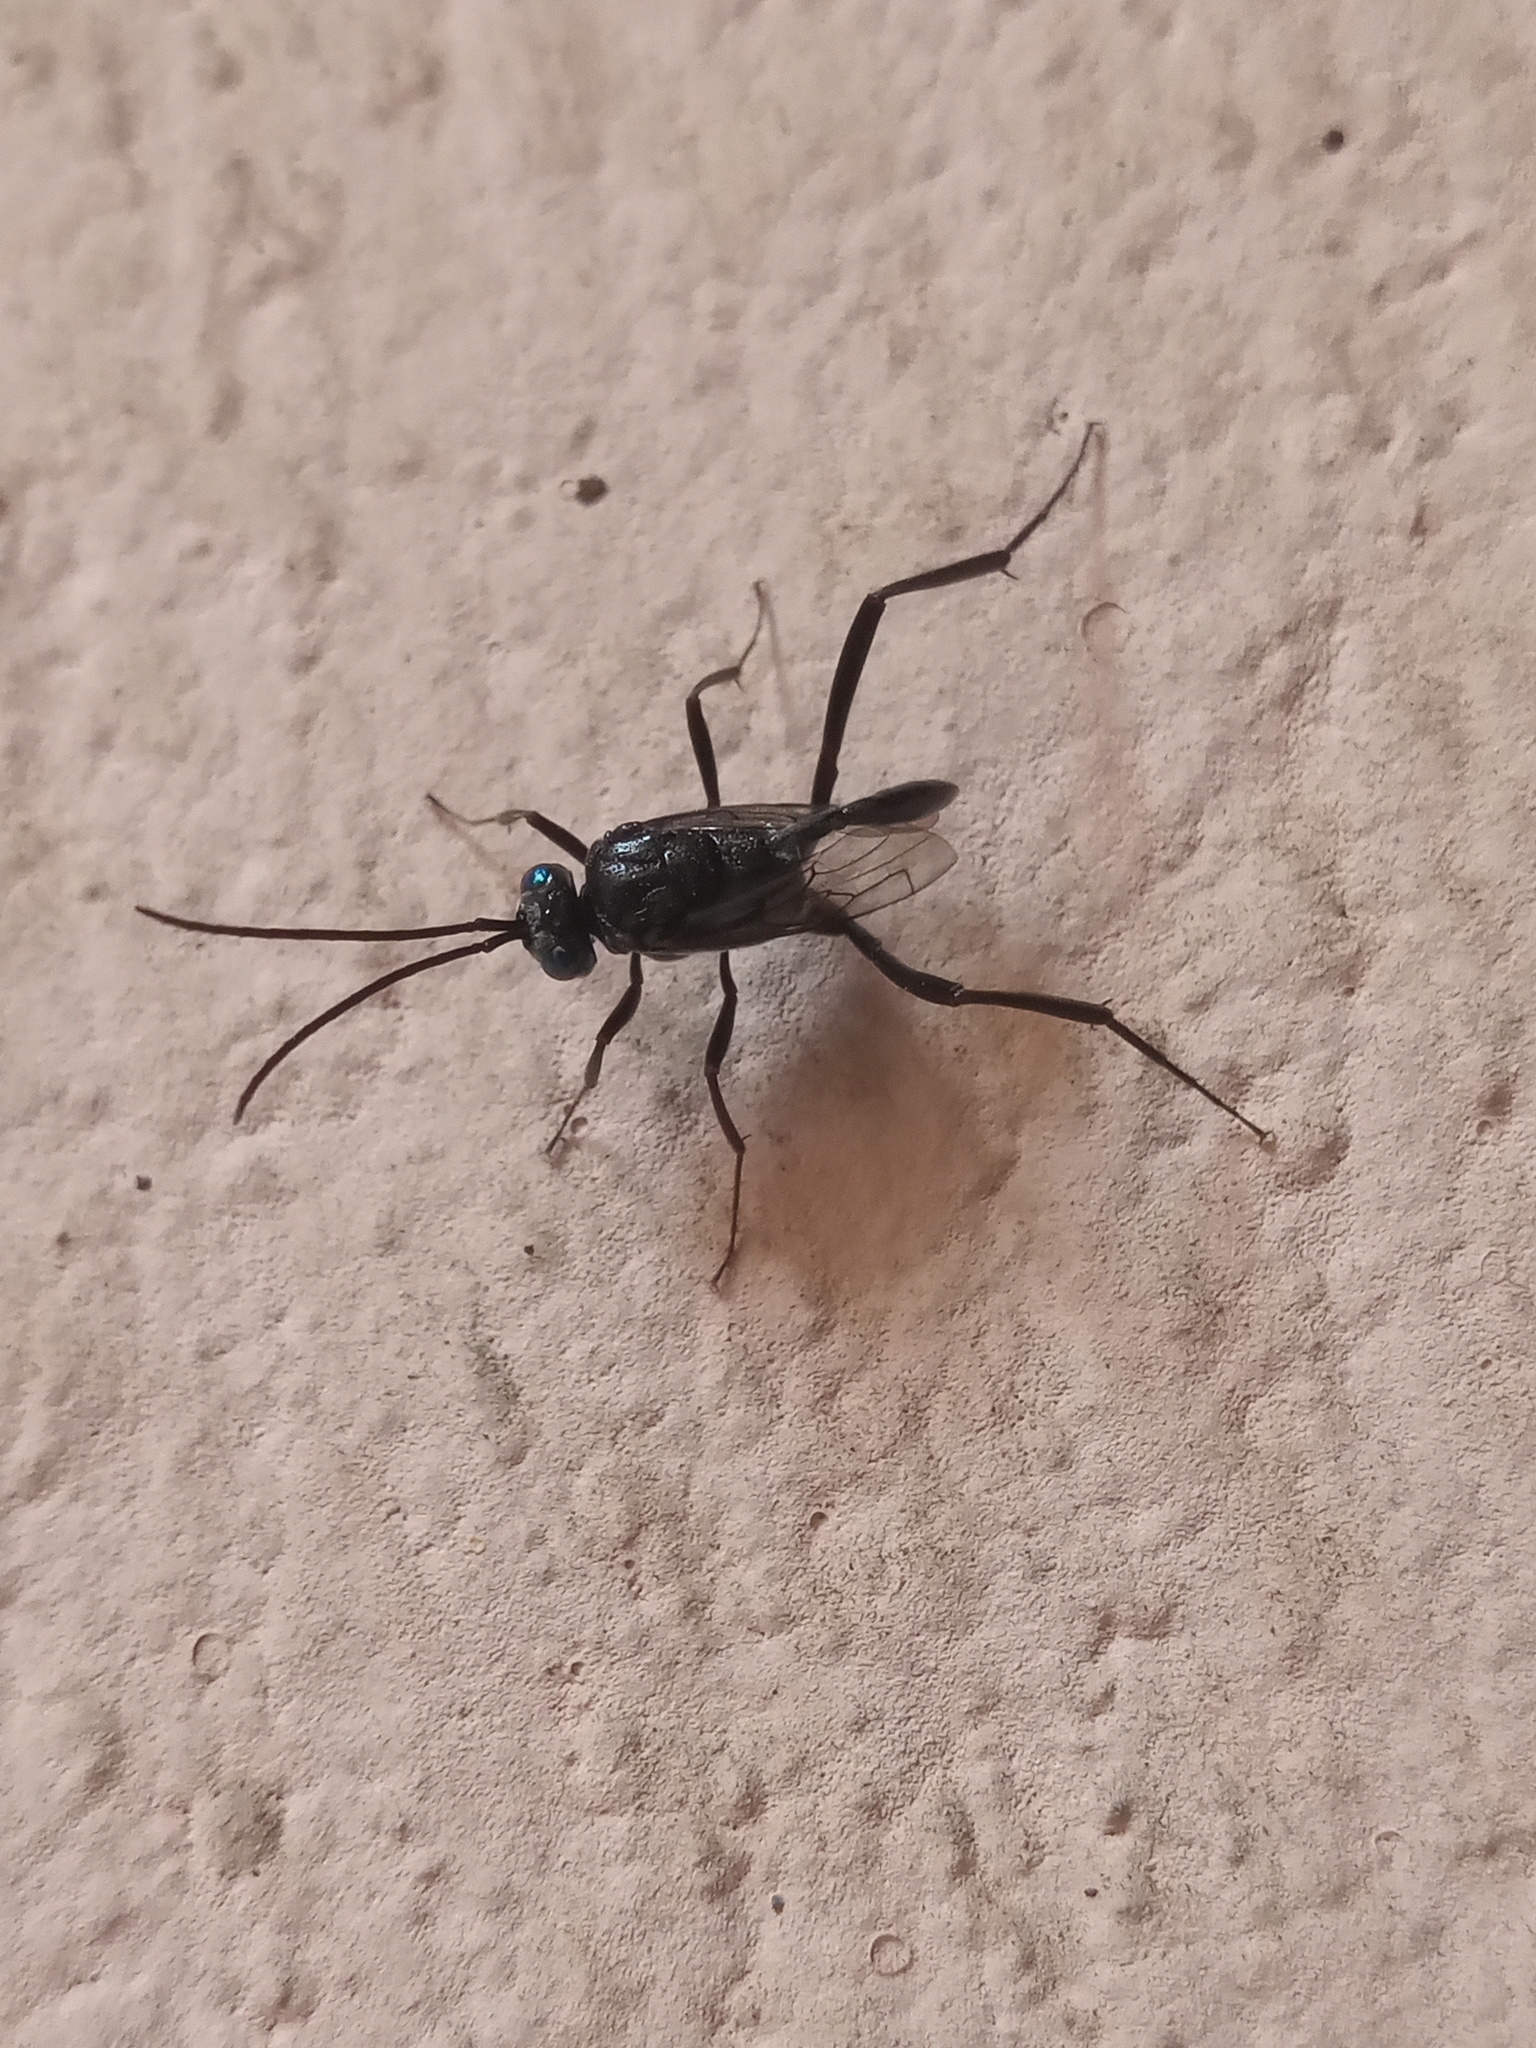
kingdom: Animalia
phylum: Arthropoda
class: Insecta
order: Hymenoptera
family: Evaniidae
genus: Evania
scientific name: Evania appendigaster
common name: Ensign wasp
